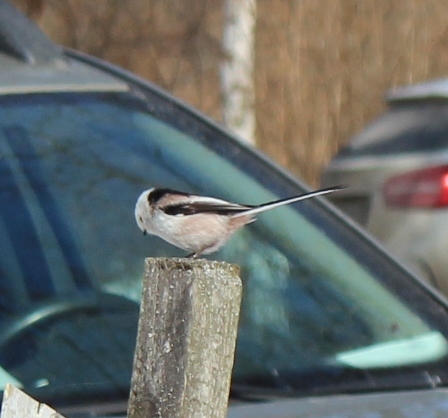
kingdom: Animalia
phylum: Chordata
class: Aves
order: Passeriformes
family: Aegithalidae
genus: Aegithalos
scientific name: Aegithalos caudatus
